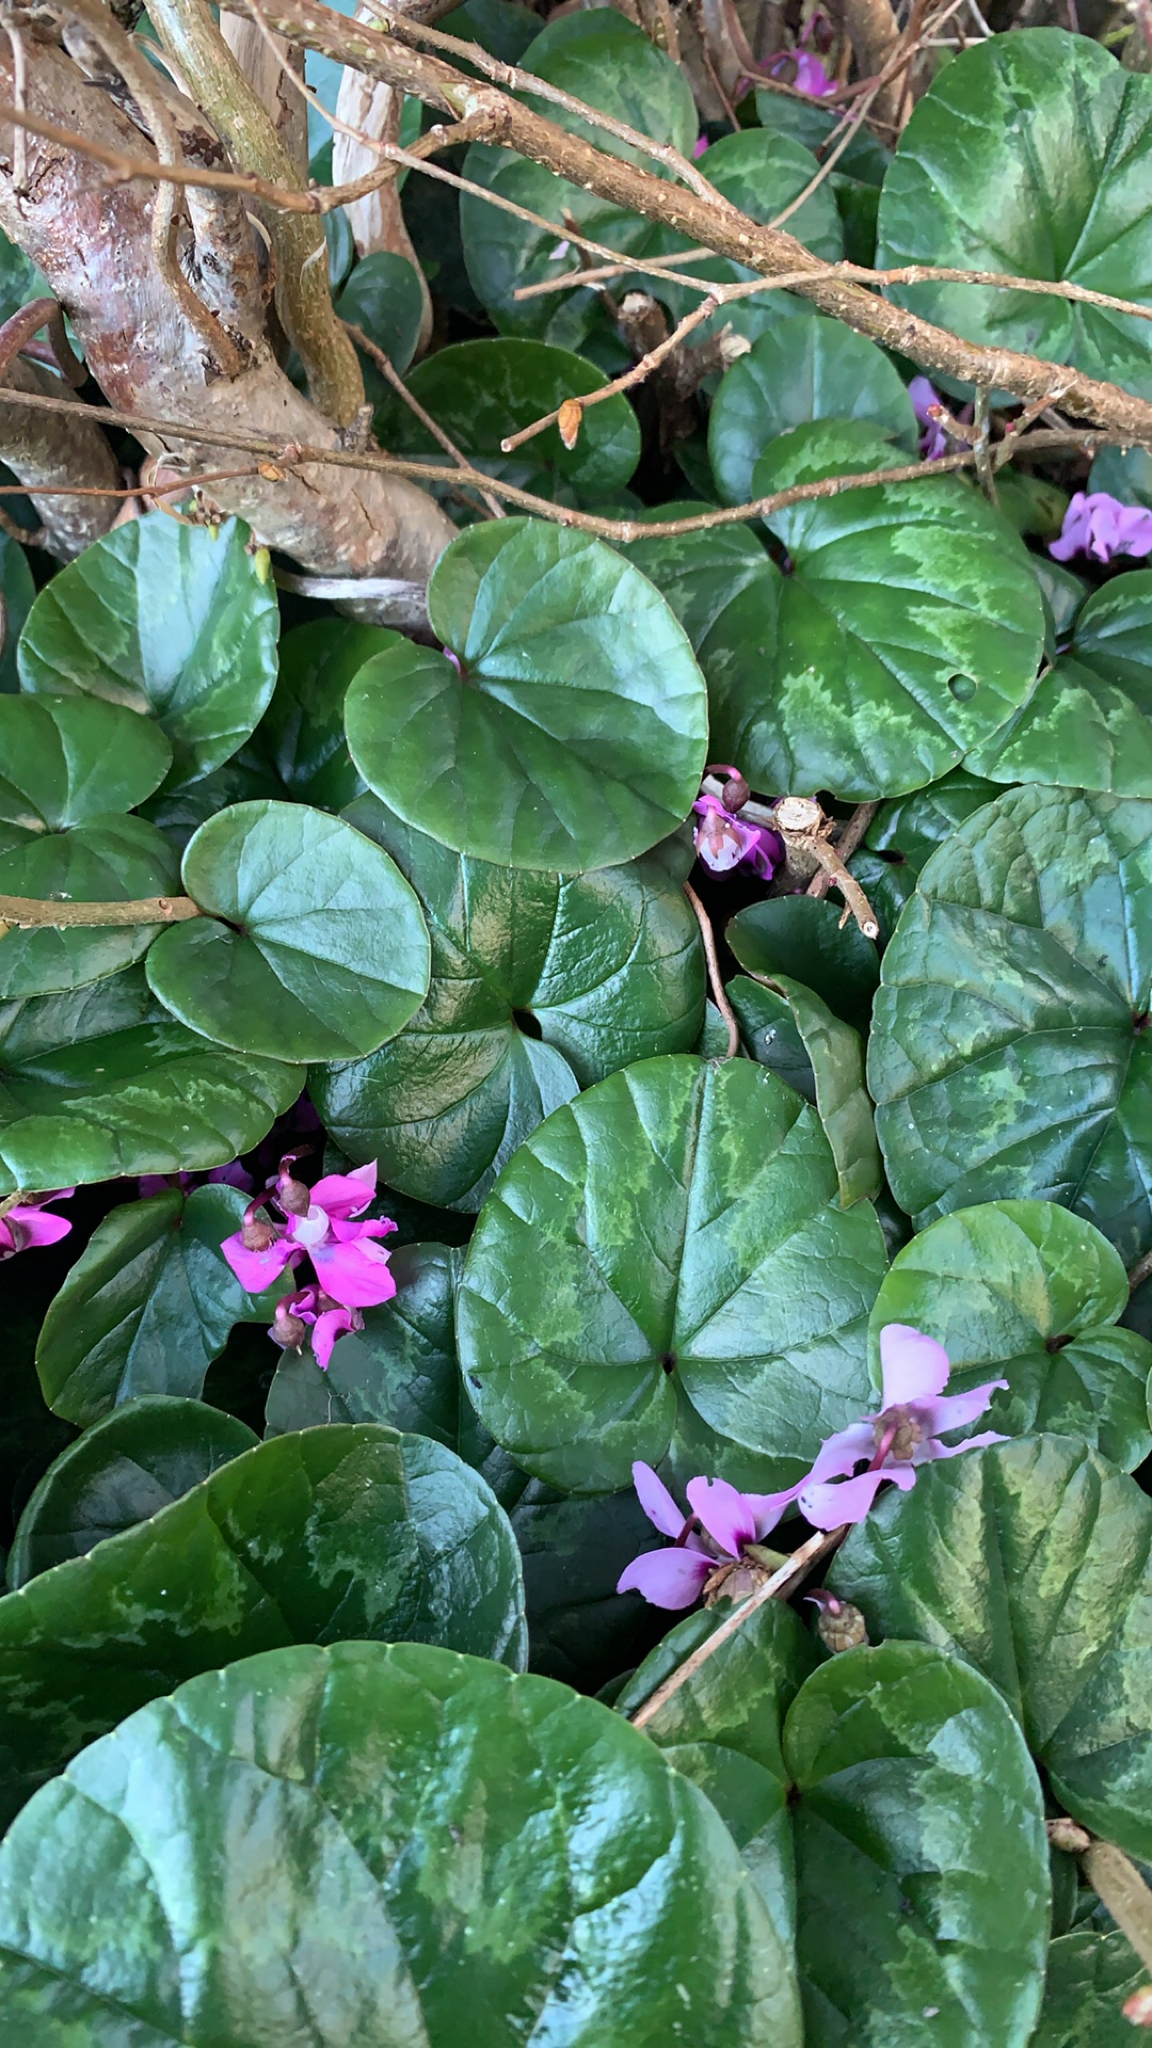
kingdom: Plantae
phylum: Tracheophyta
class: Magnoliopsida
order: Ericales
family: Primulaceae
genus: Cyclamen
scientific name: Cyclamen coum
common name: Eastern sowbread
